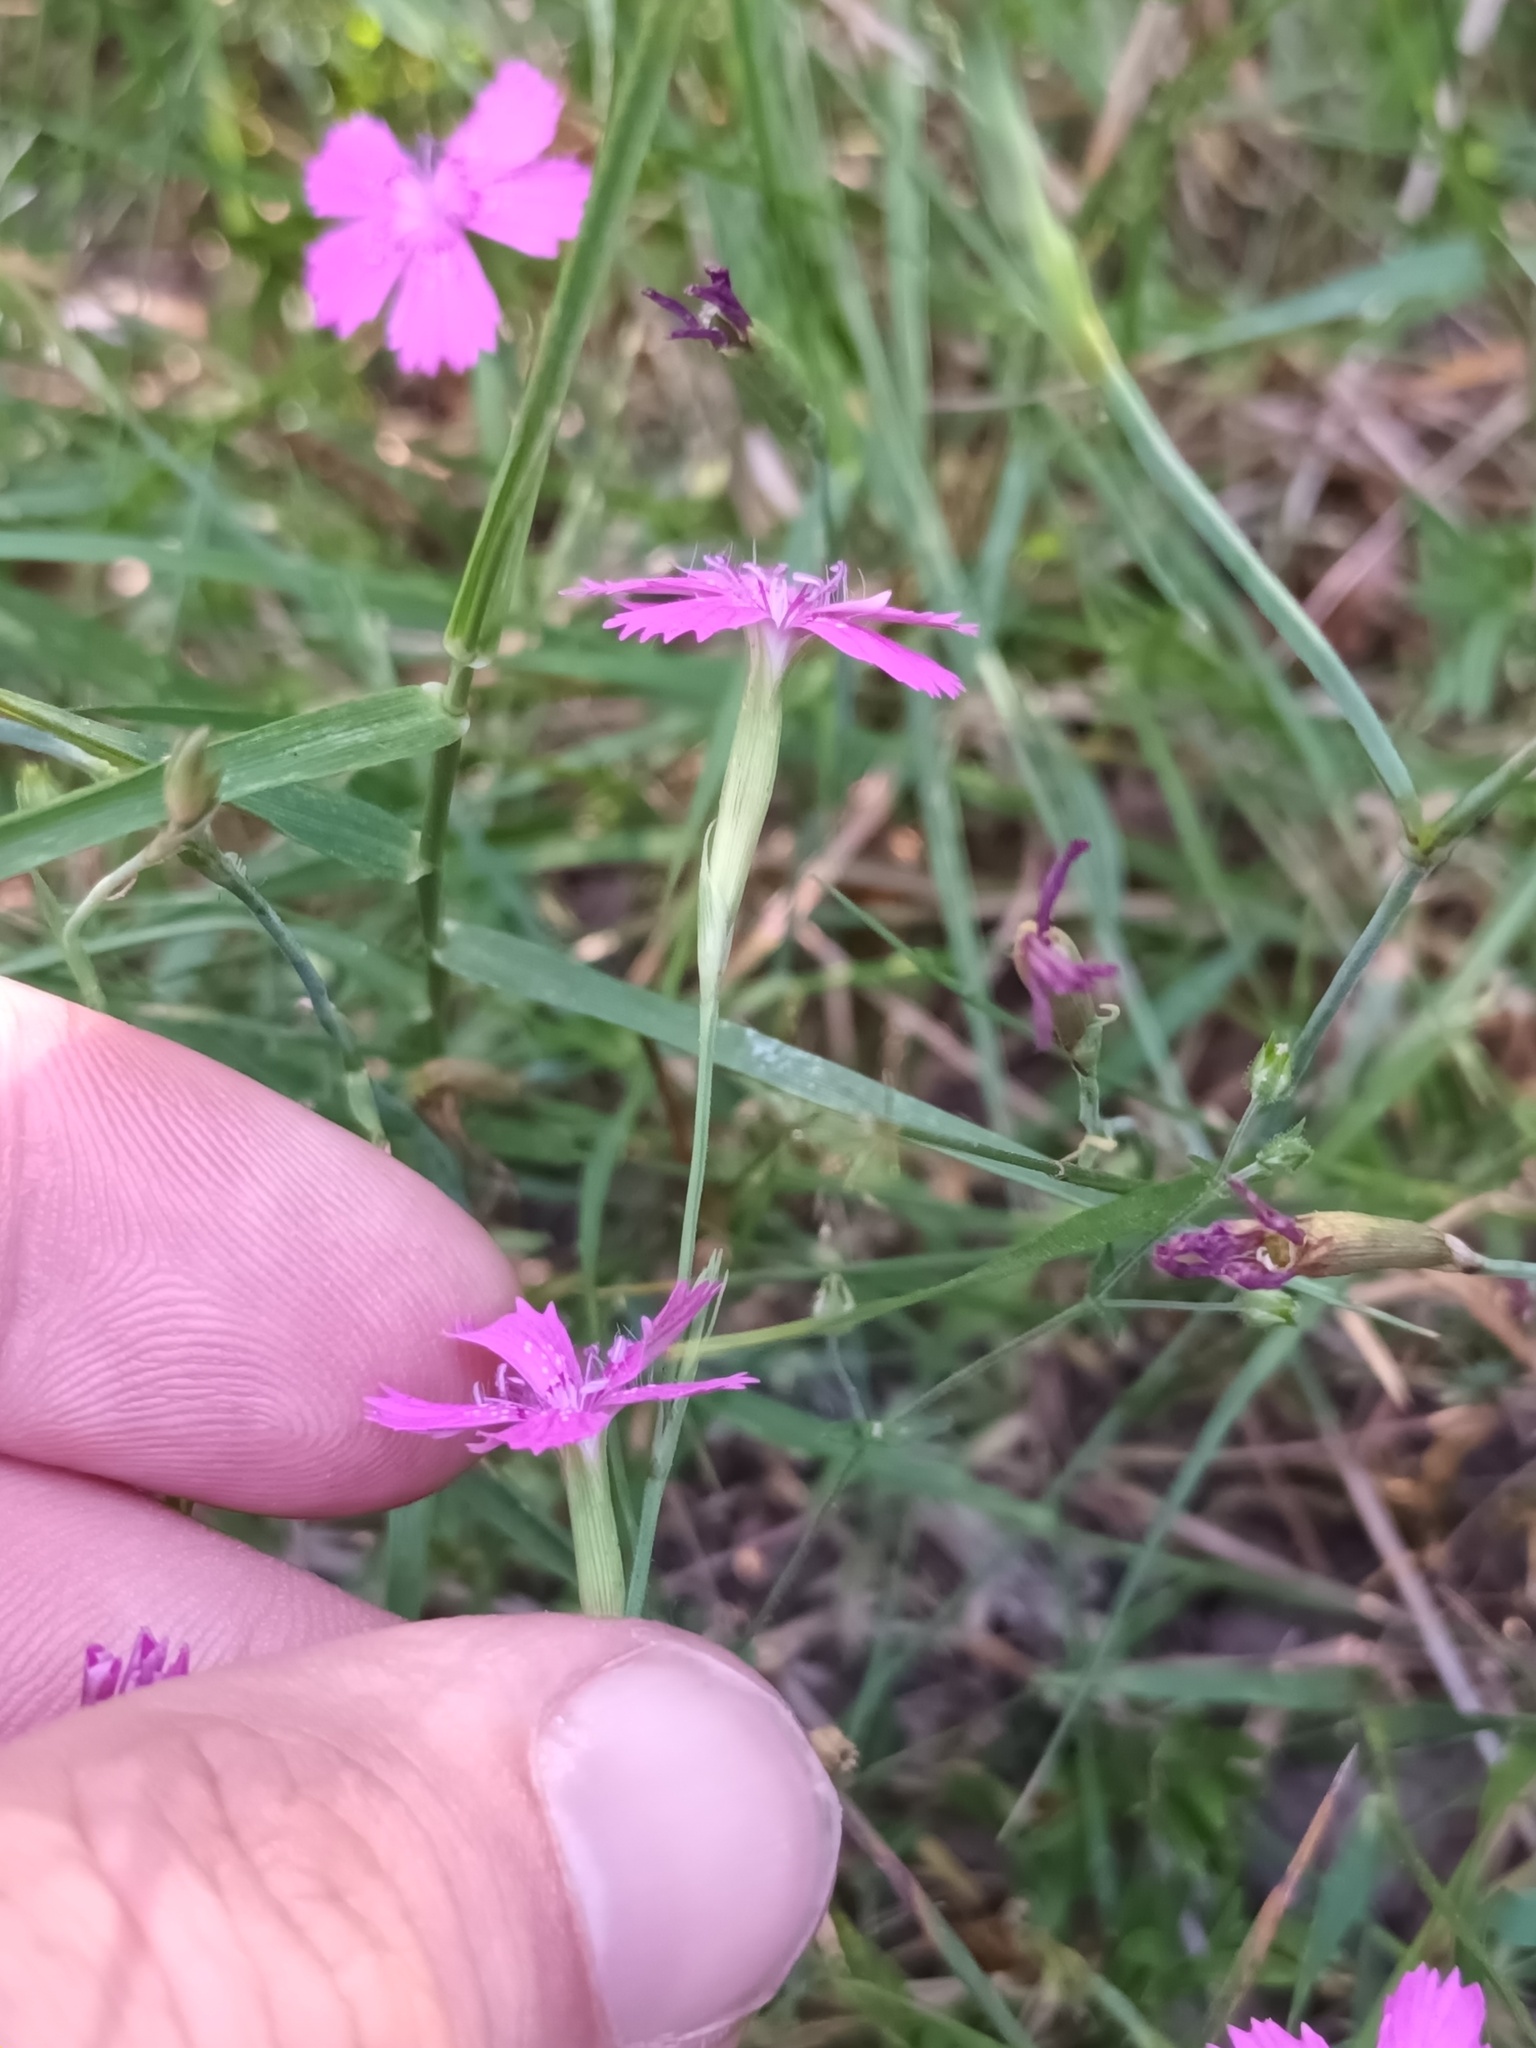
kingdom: Plantae
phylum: Tracheophyta
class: Magnoliopsida
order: Caryophyllales
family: Caryophyllaceae
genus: Dianthus
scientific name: Dianthus deltoides
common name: Maiden pink
